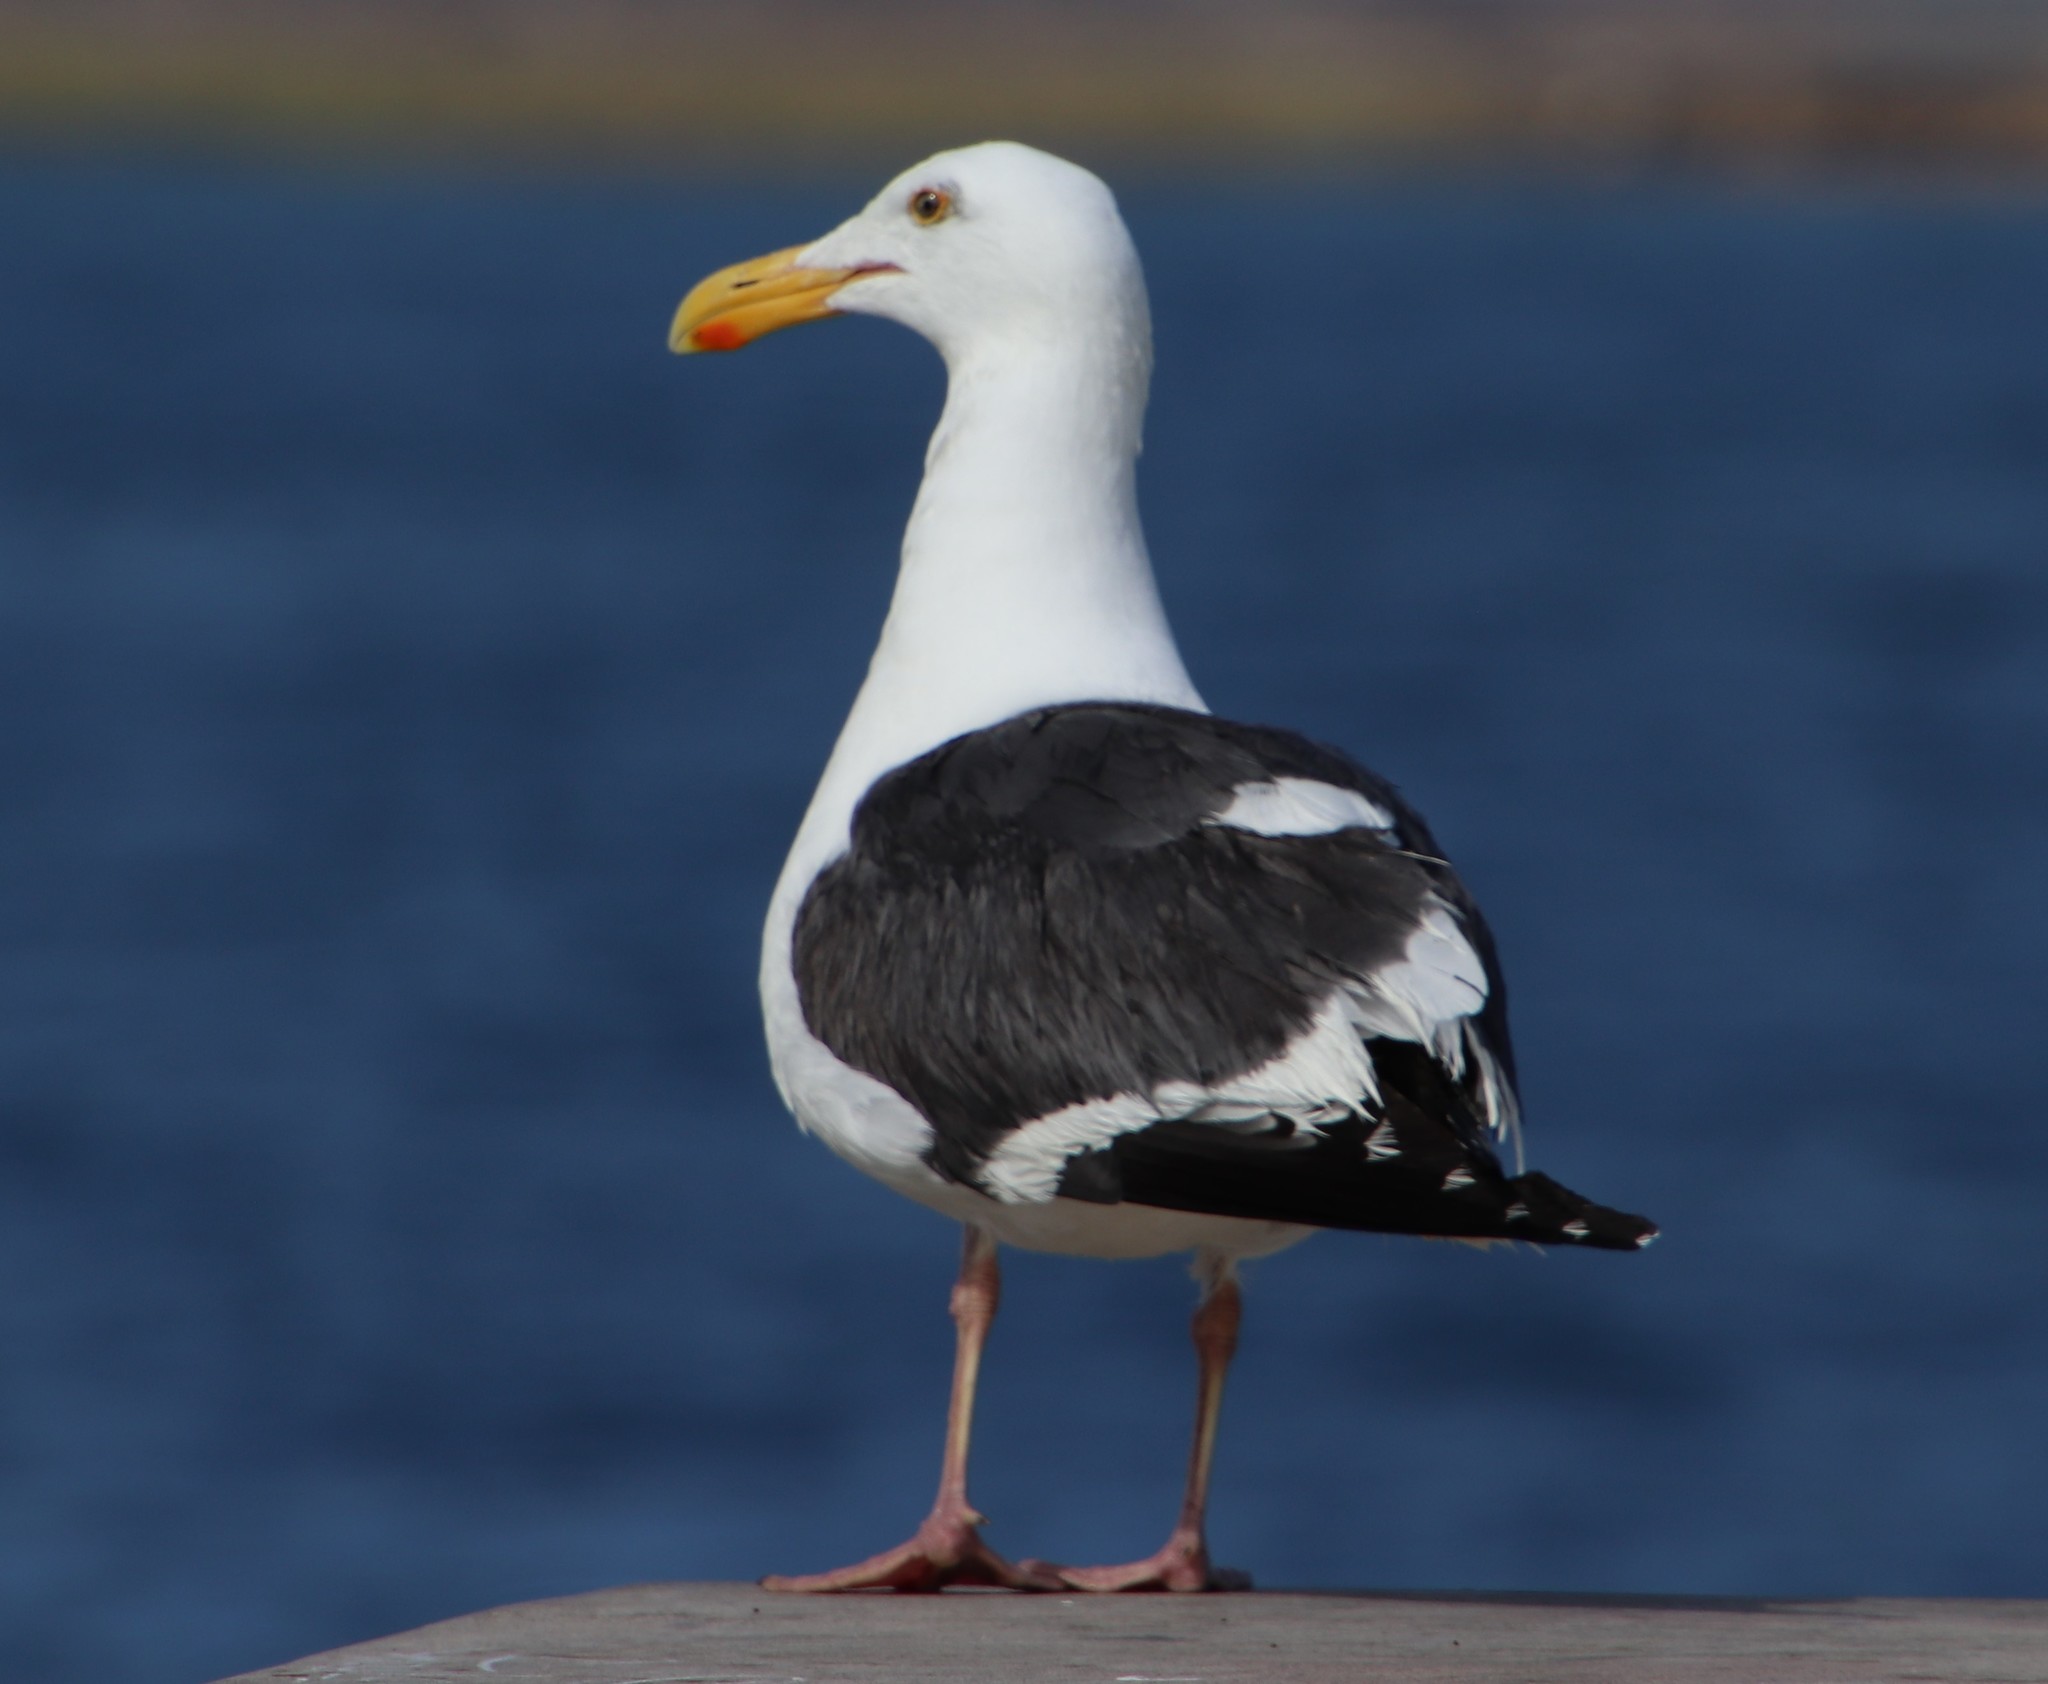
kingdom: Animalia
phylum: Chordata
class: Aves
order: Charadriiformes
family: Laridae
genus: Larus
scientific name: Larus occidentalis
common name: Western gull
